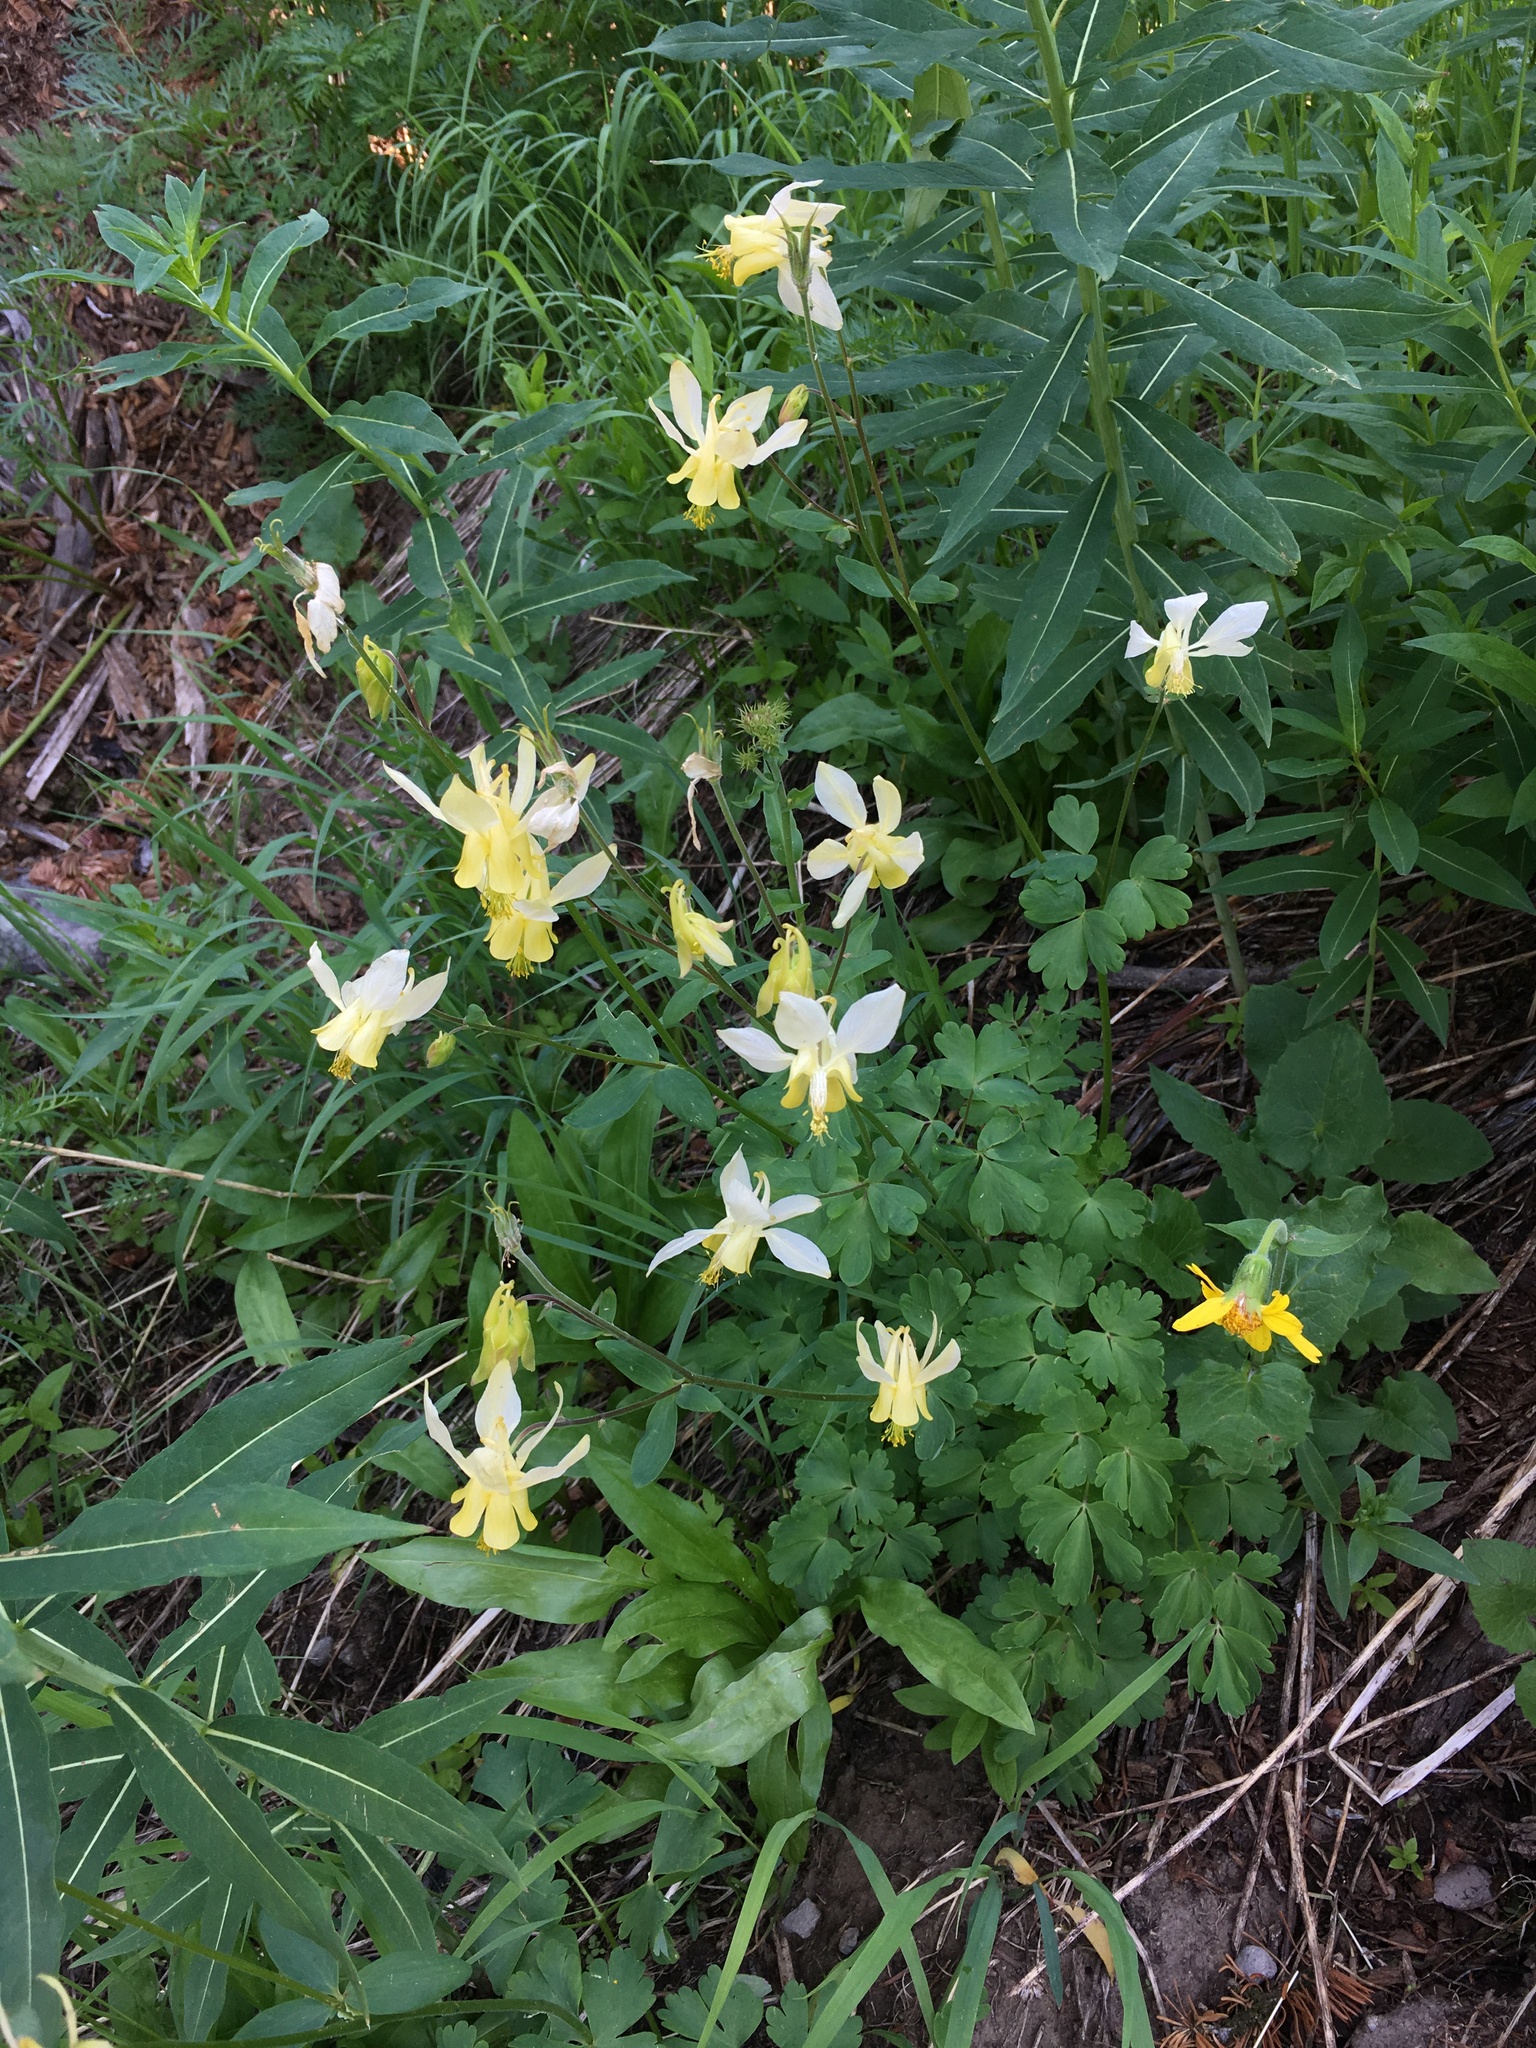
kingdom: Plantae
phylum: Tracheophyta
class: Magnoliopsida
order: Ranunculales
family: Ranunculaceae
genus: Aquilegia
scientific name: Aquilegia flavescens
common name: Yellow columbine
